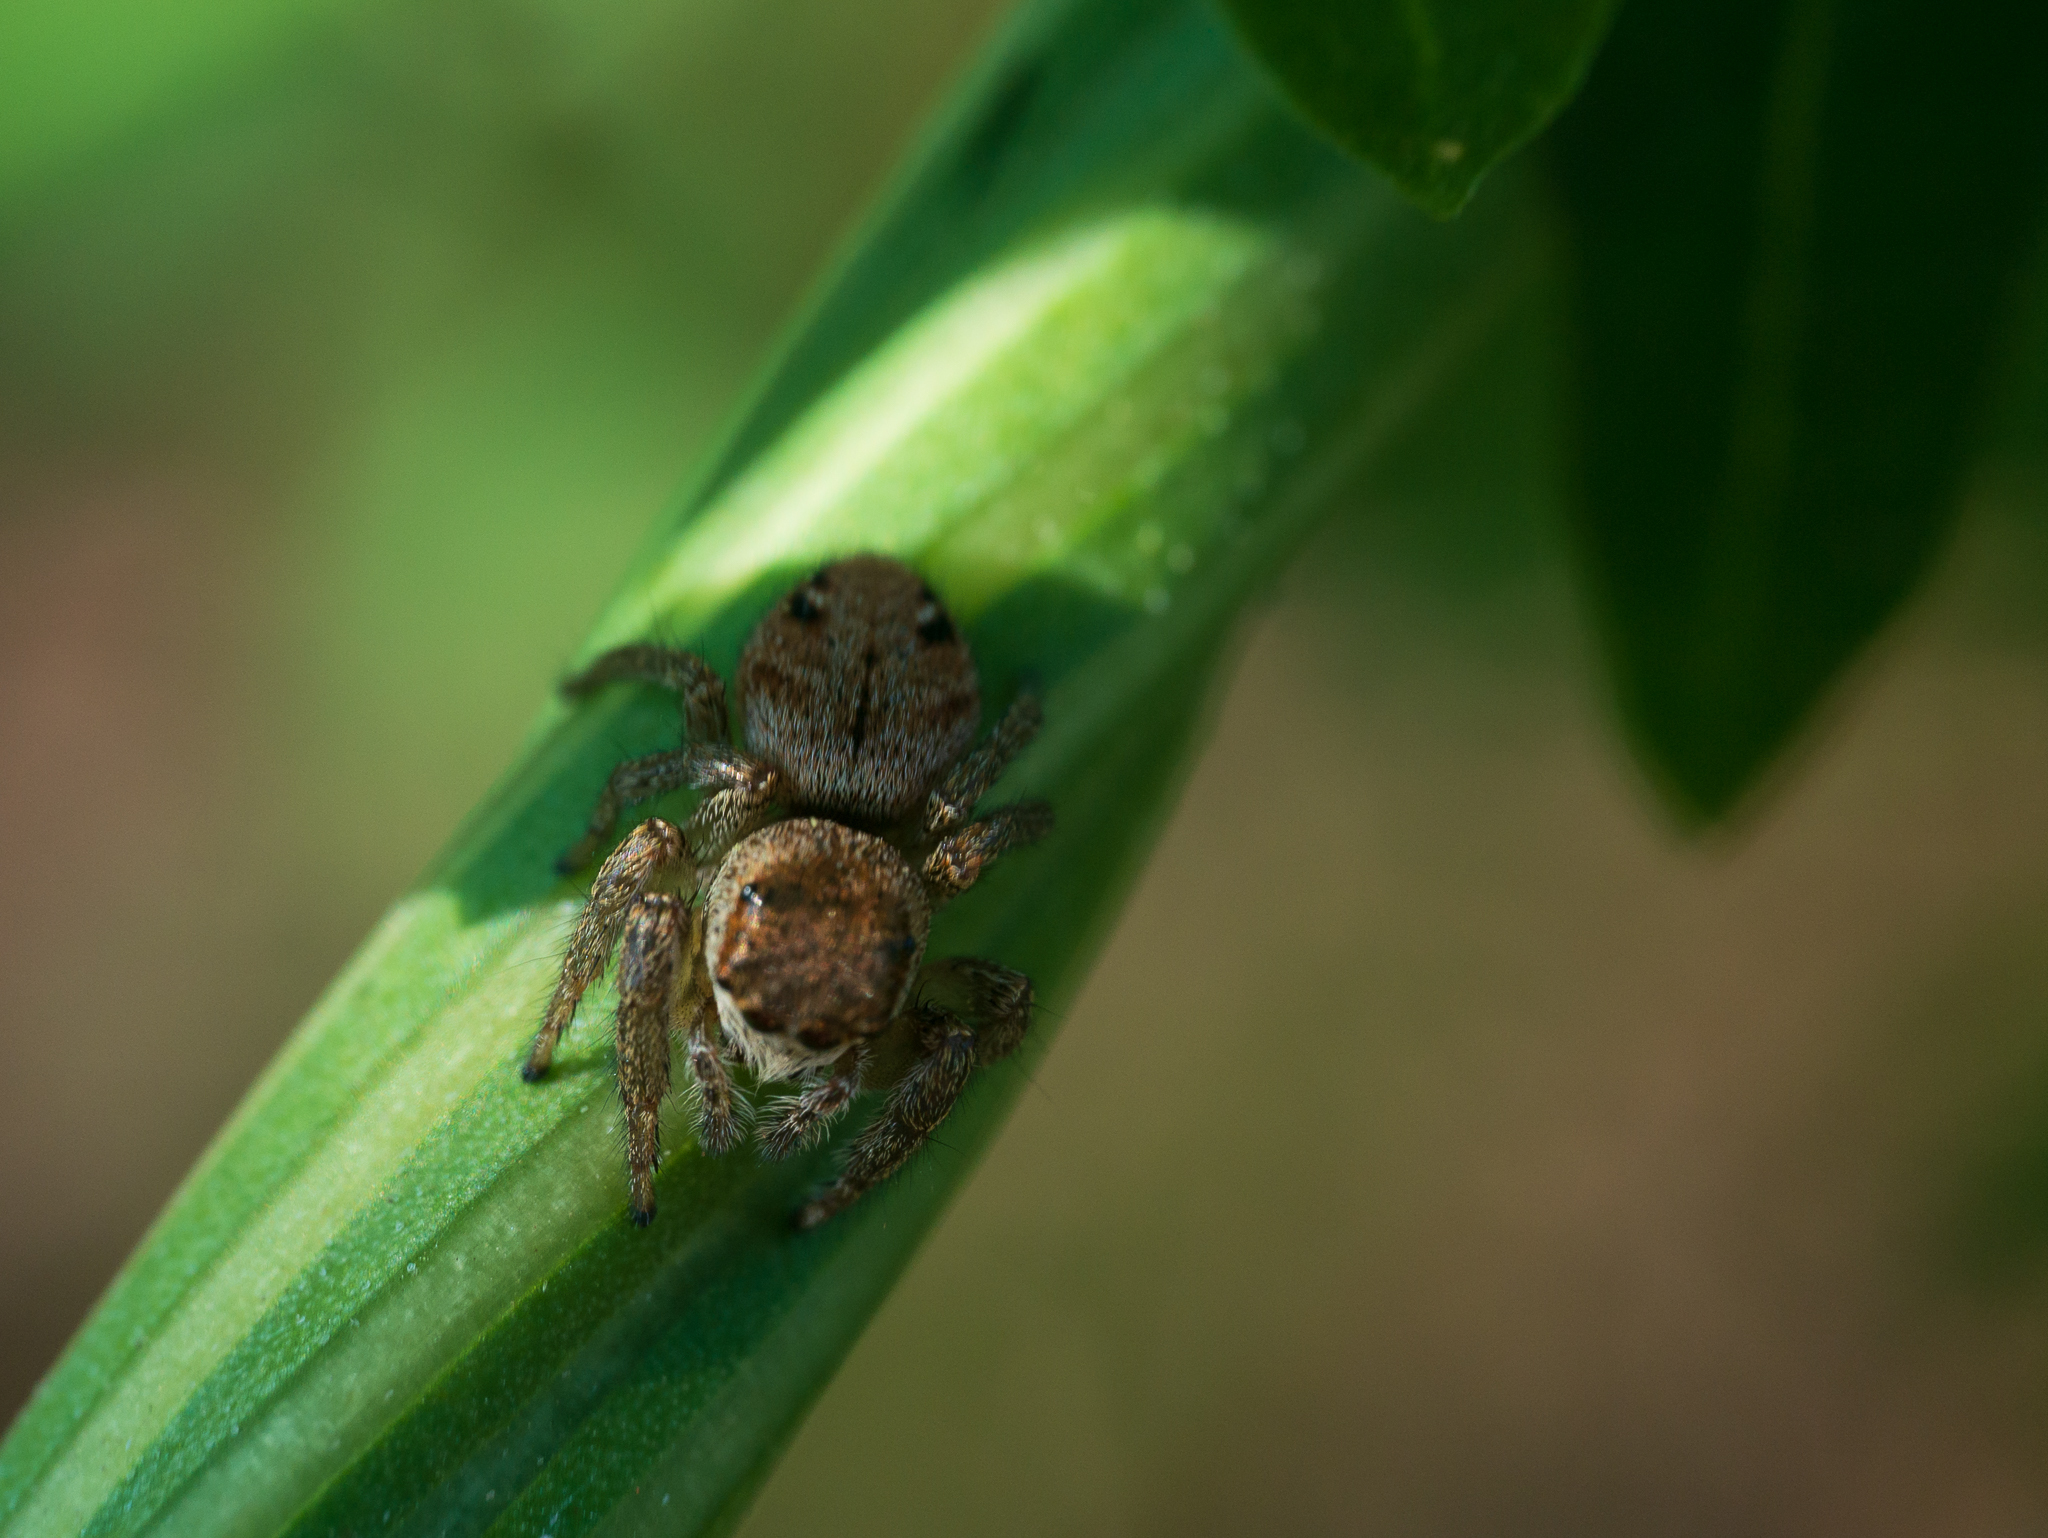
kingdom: Animalia
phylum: Arthropoda
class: Arachnida
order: Araneae
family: Salticidae
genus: Evarcha
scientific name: Evarcha arcuata
